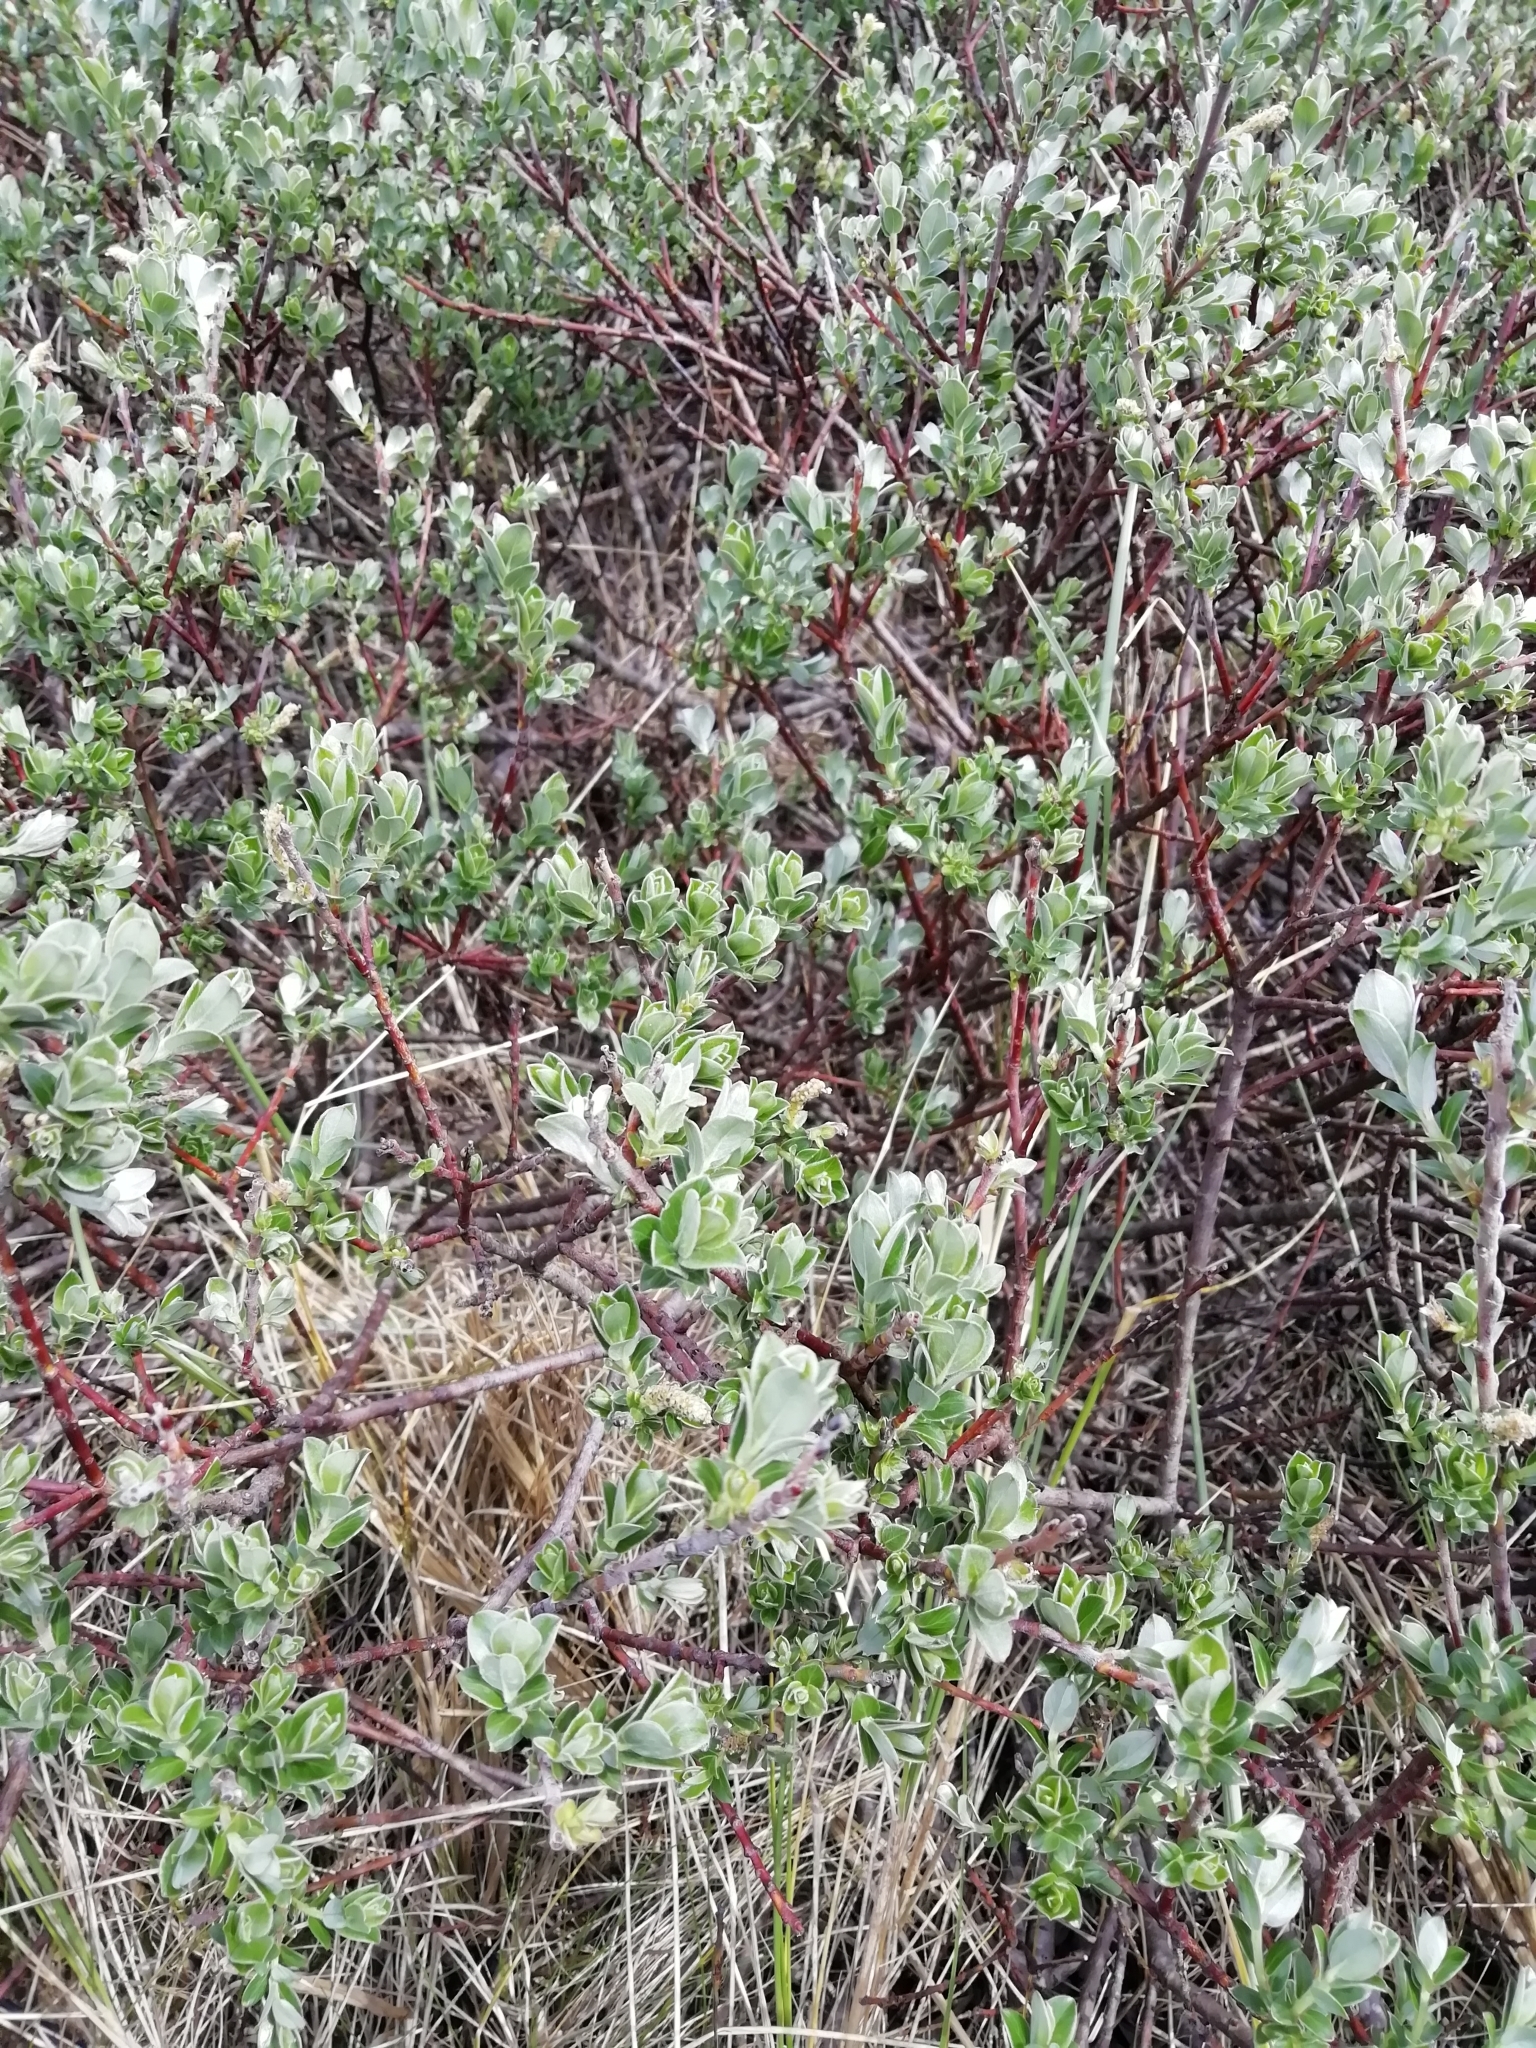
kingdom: Plantae
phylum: Tracheophyta
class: Magnoliopsida
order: Malpighiales
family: Salicaceae
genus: Salix
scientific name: Salix repens
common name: Creeping willow
